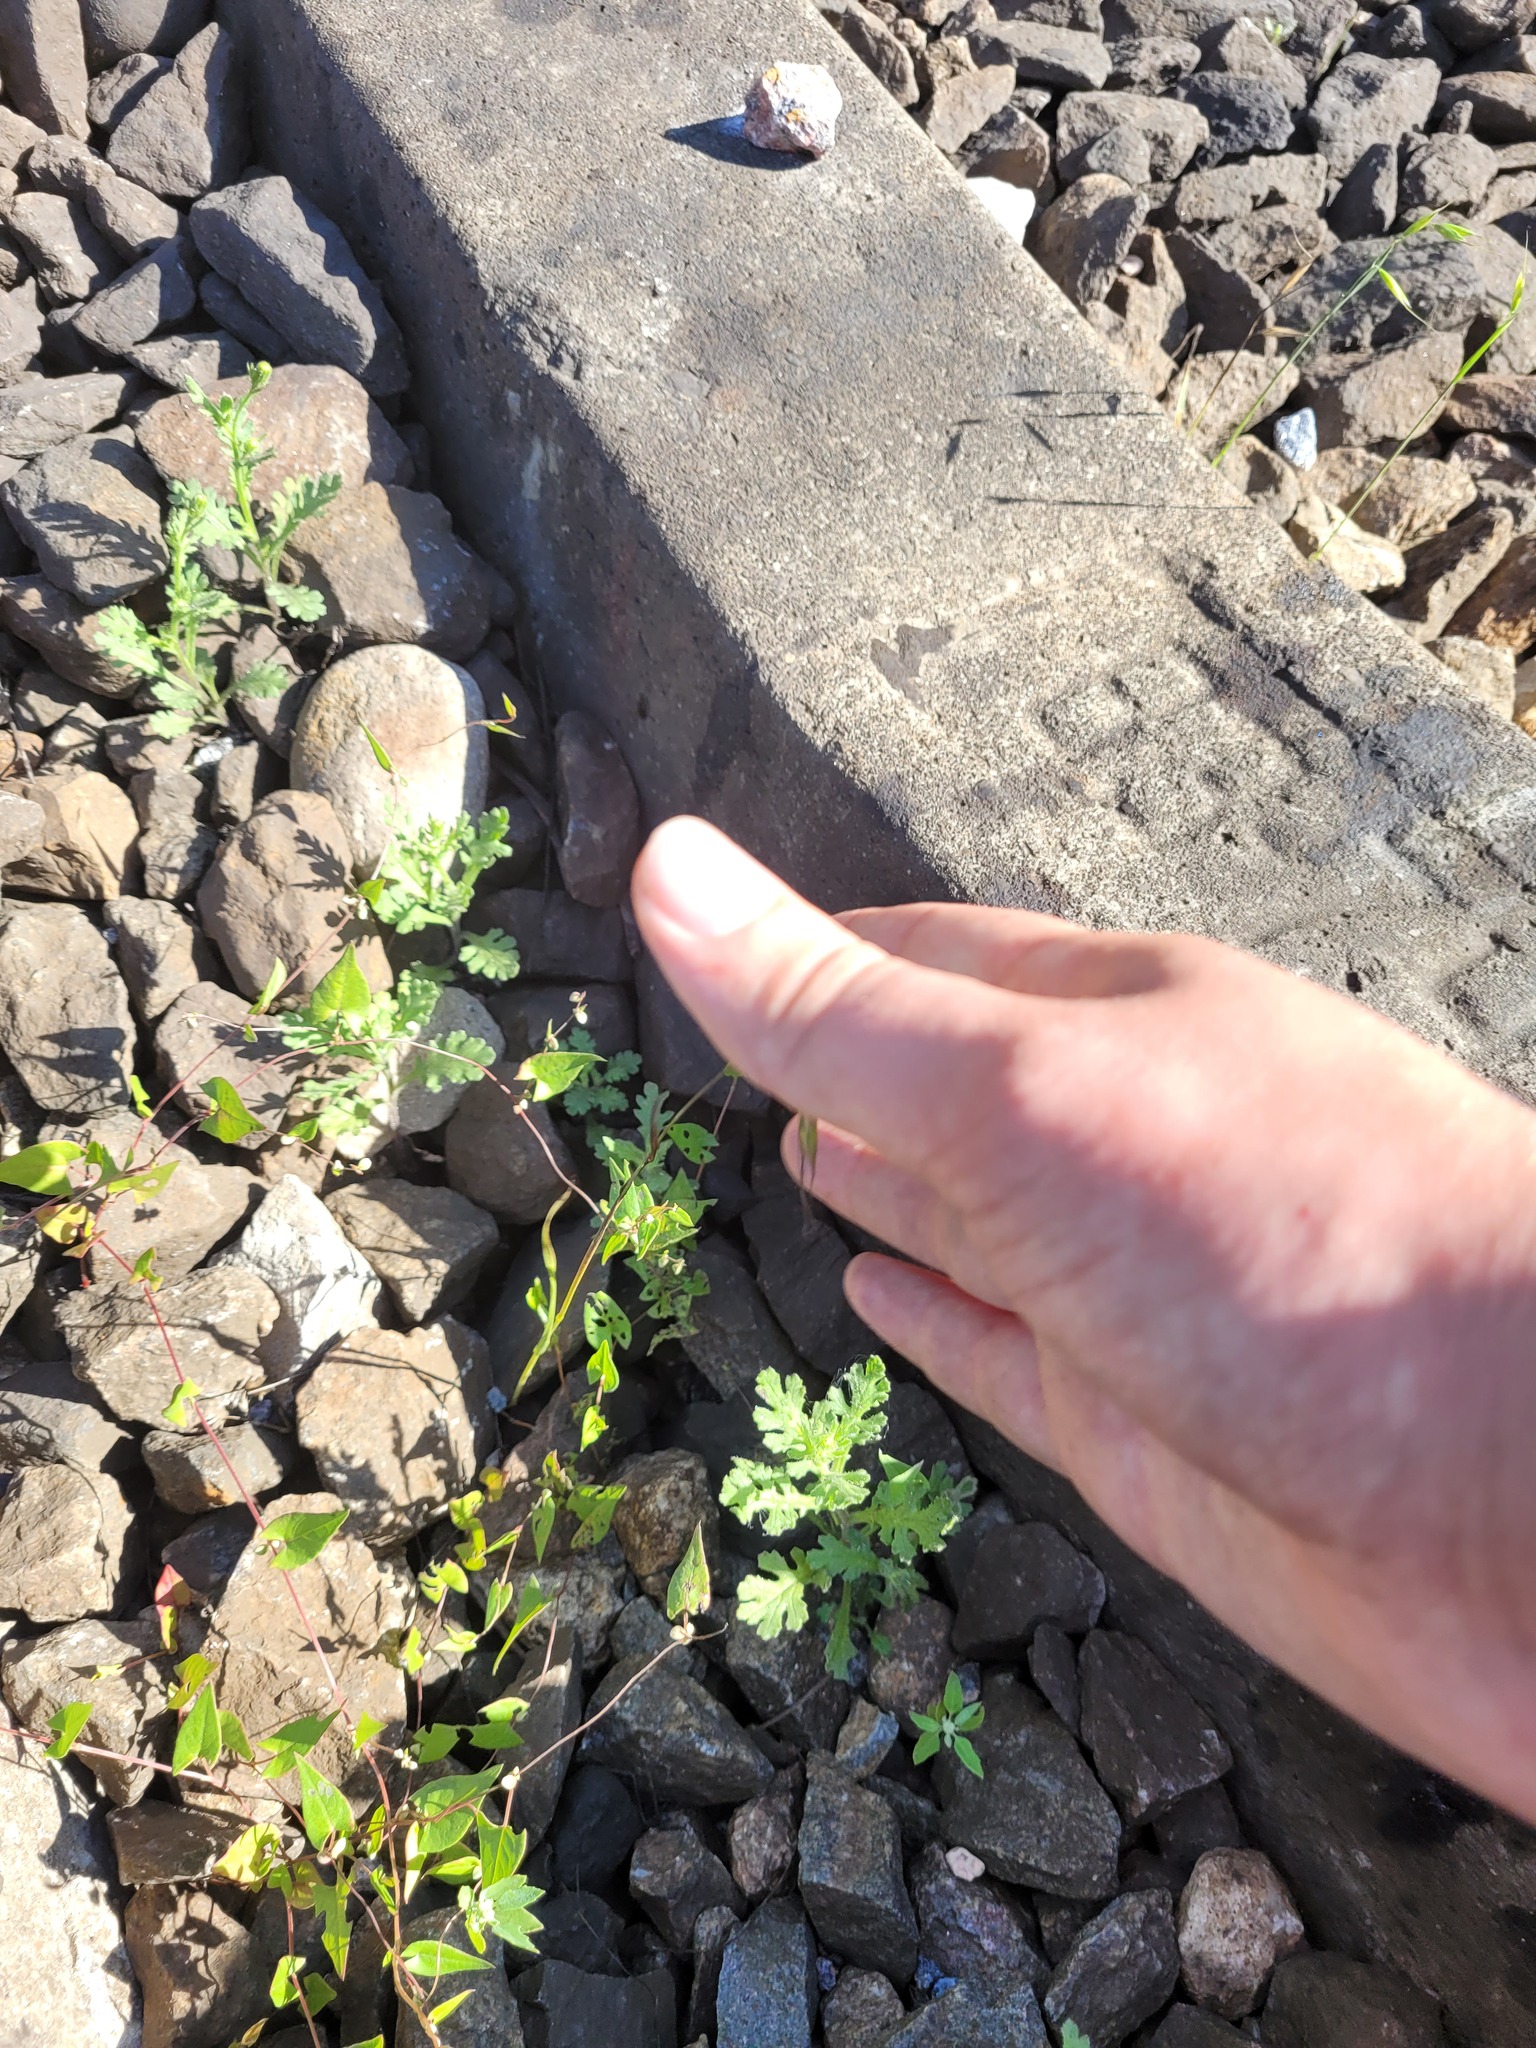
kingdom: Plantae
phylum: Tracheophyta
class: Liliopsida
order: Poales
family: Poaceae
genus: Avena
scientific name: Avena fatua
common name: Wild oat
